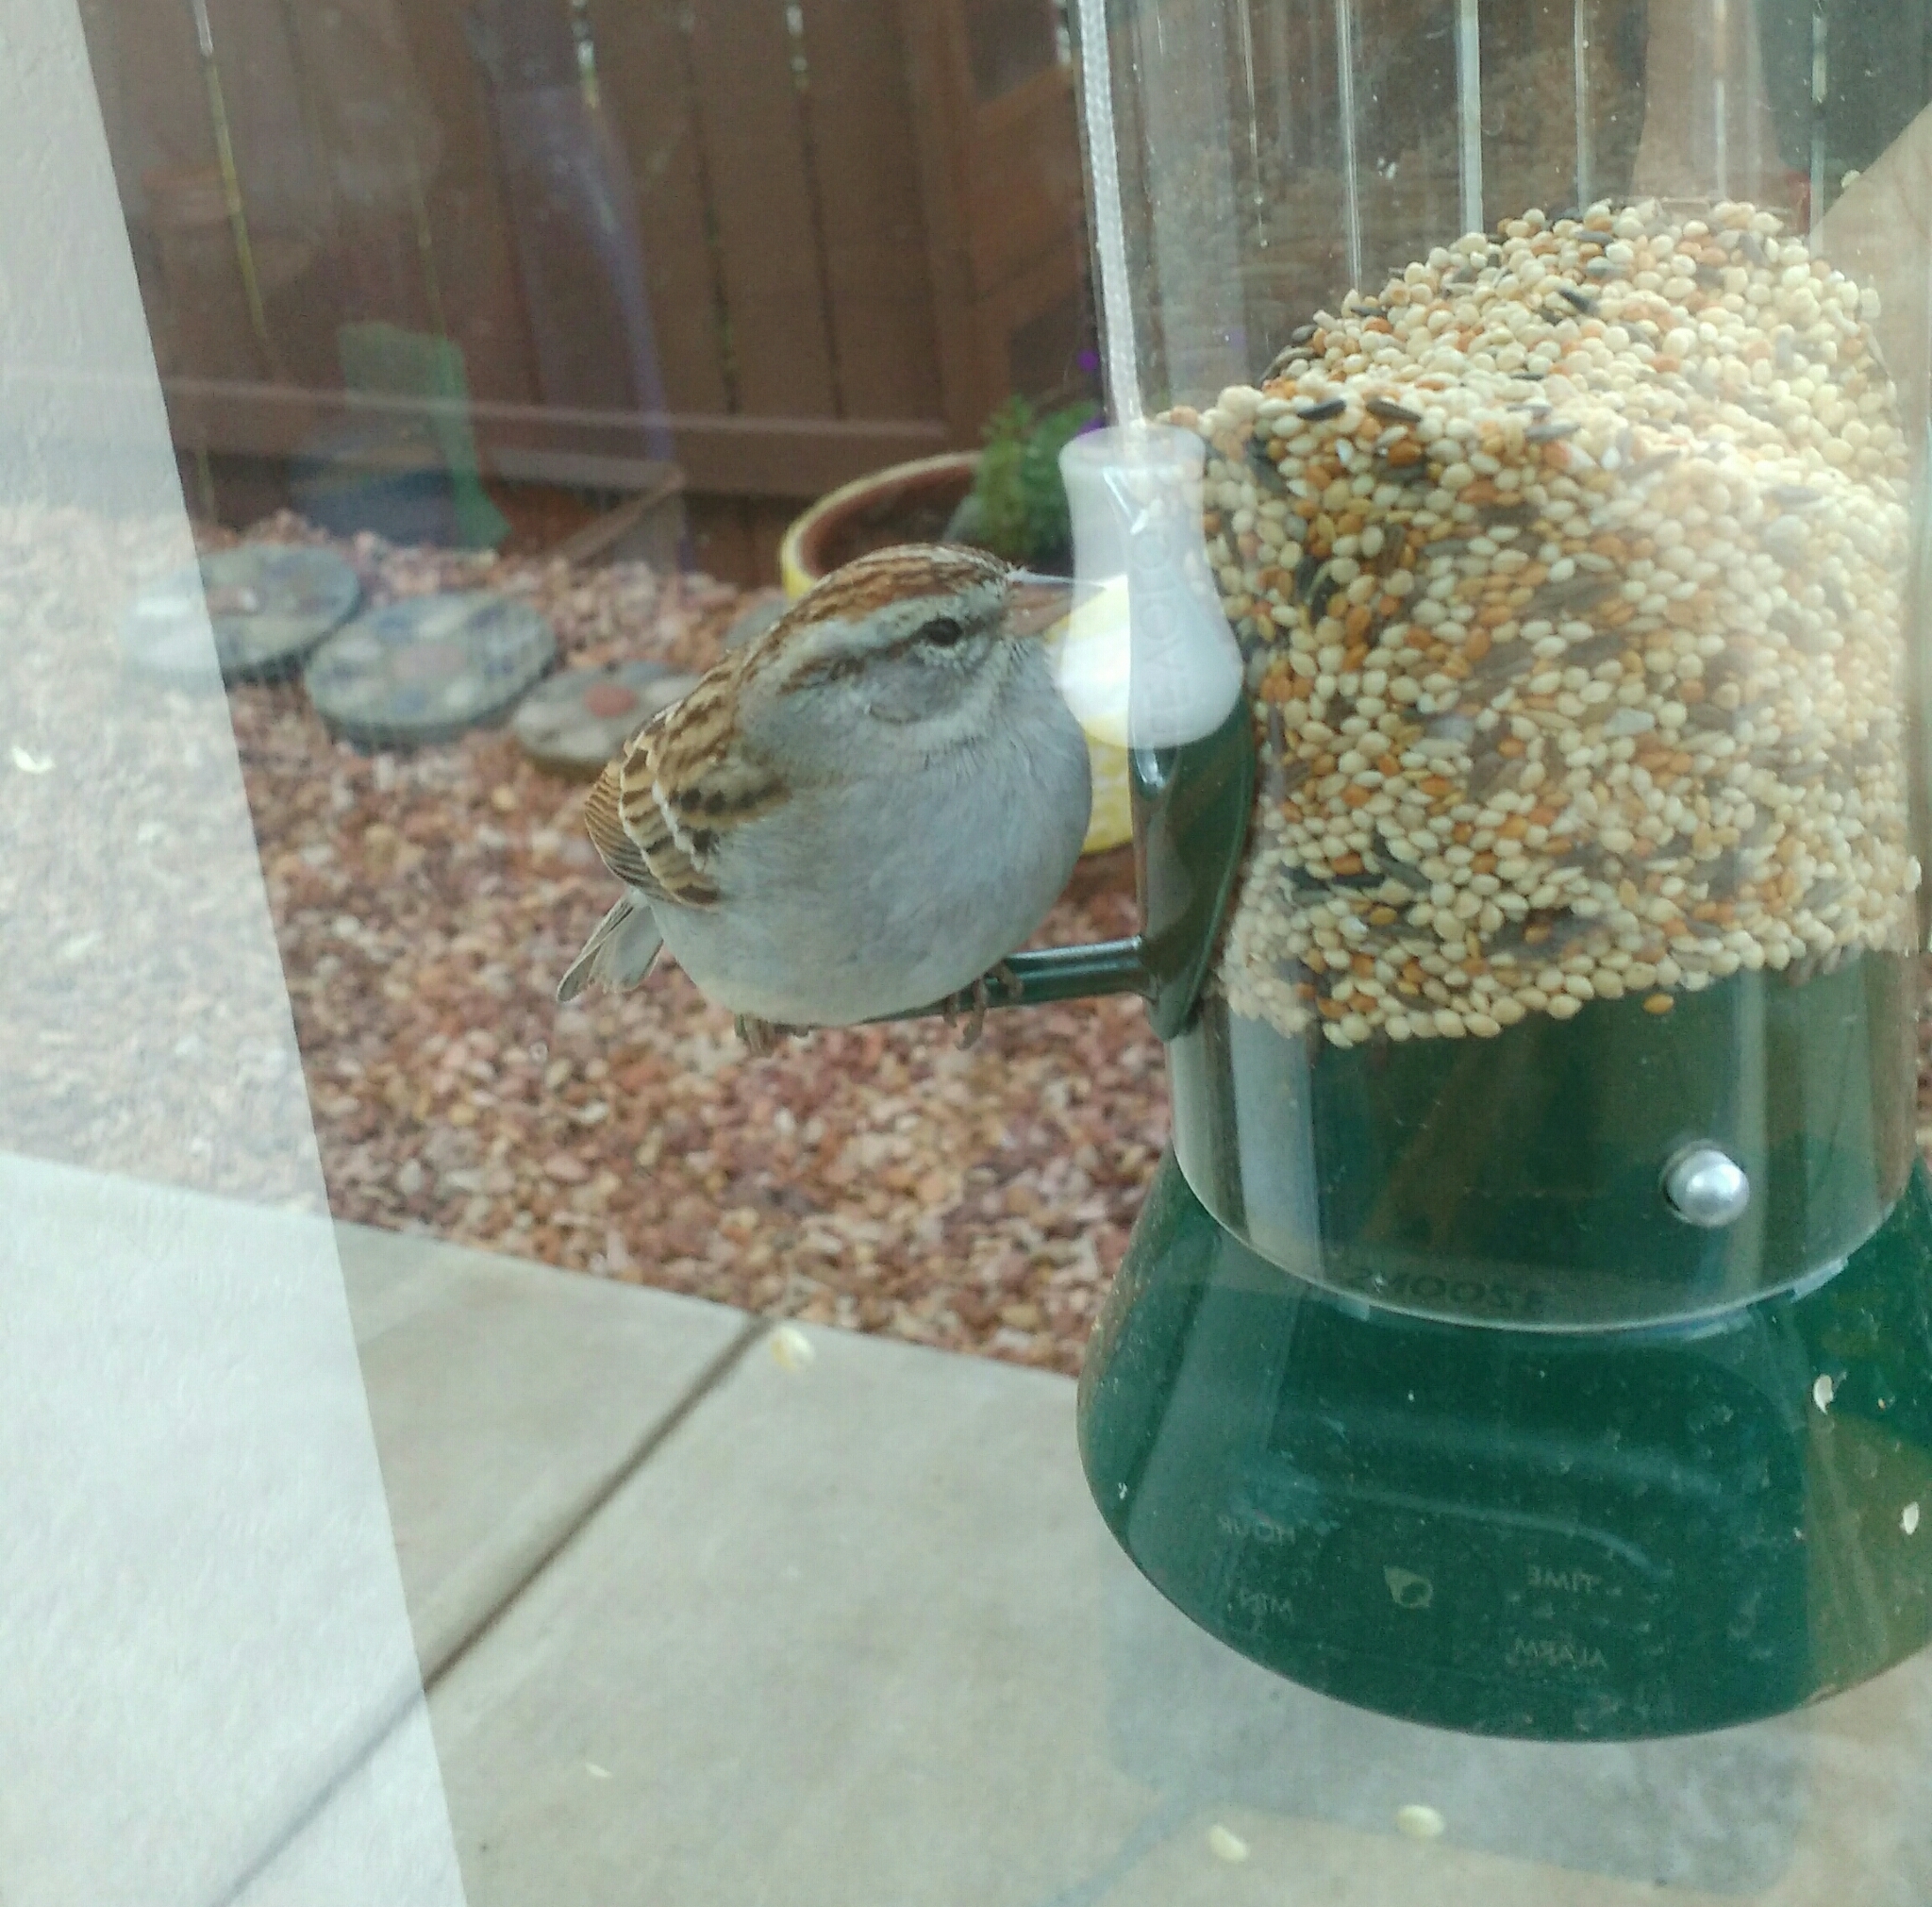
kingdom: Animalia
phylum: Chordata
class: Aves
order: Passeriformes
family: Passerellidae
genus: Spizella
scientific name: Spizella passerina
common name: Chipping sparrow
